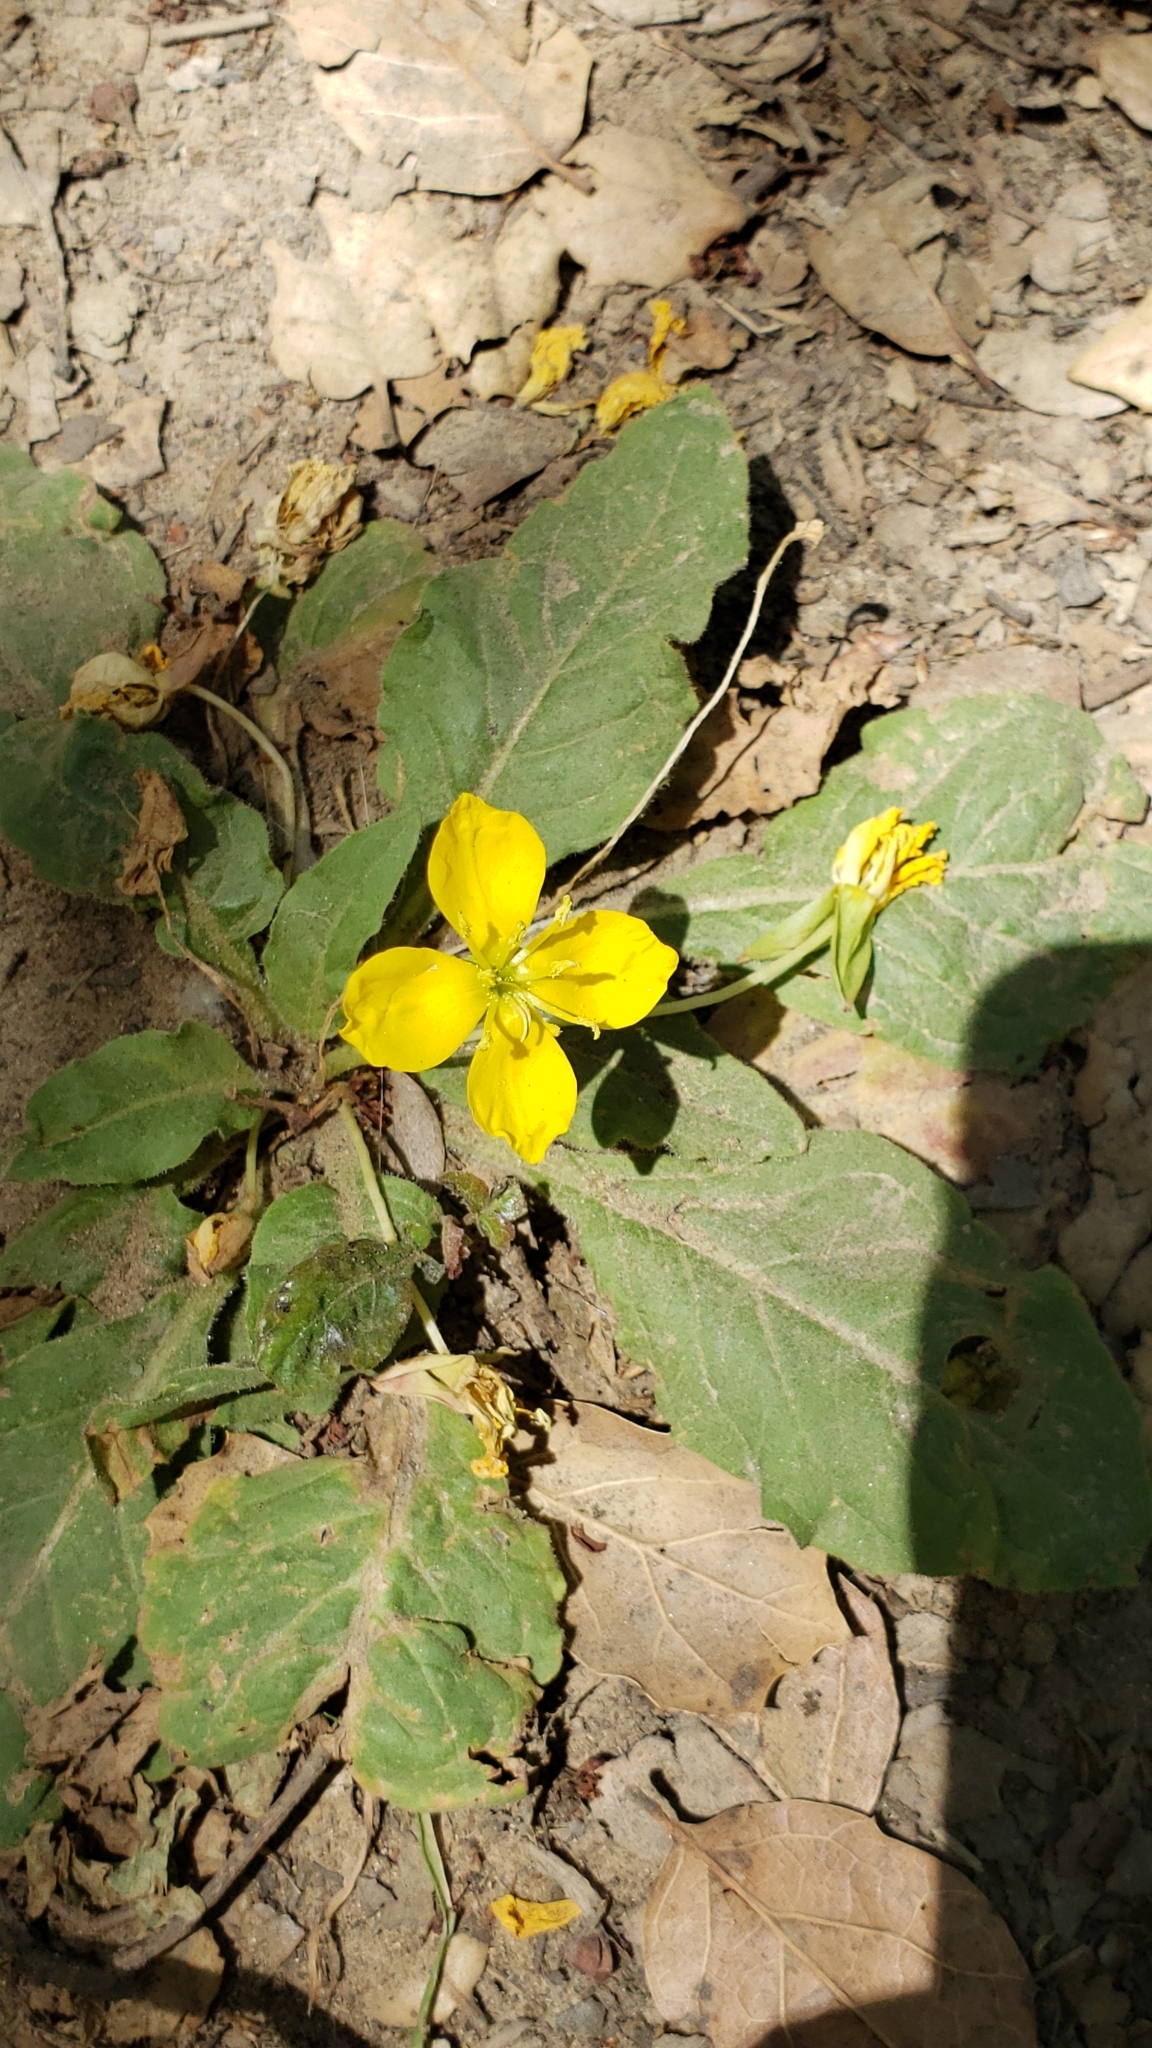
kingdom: Plantae
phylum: Tracheophyta
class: Magnoliopsida
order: Myrtales
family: Onagraceae
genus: Taraxia
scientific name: Taraxia ovata
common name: Goldeneggs
